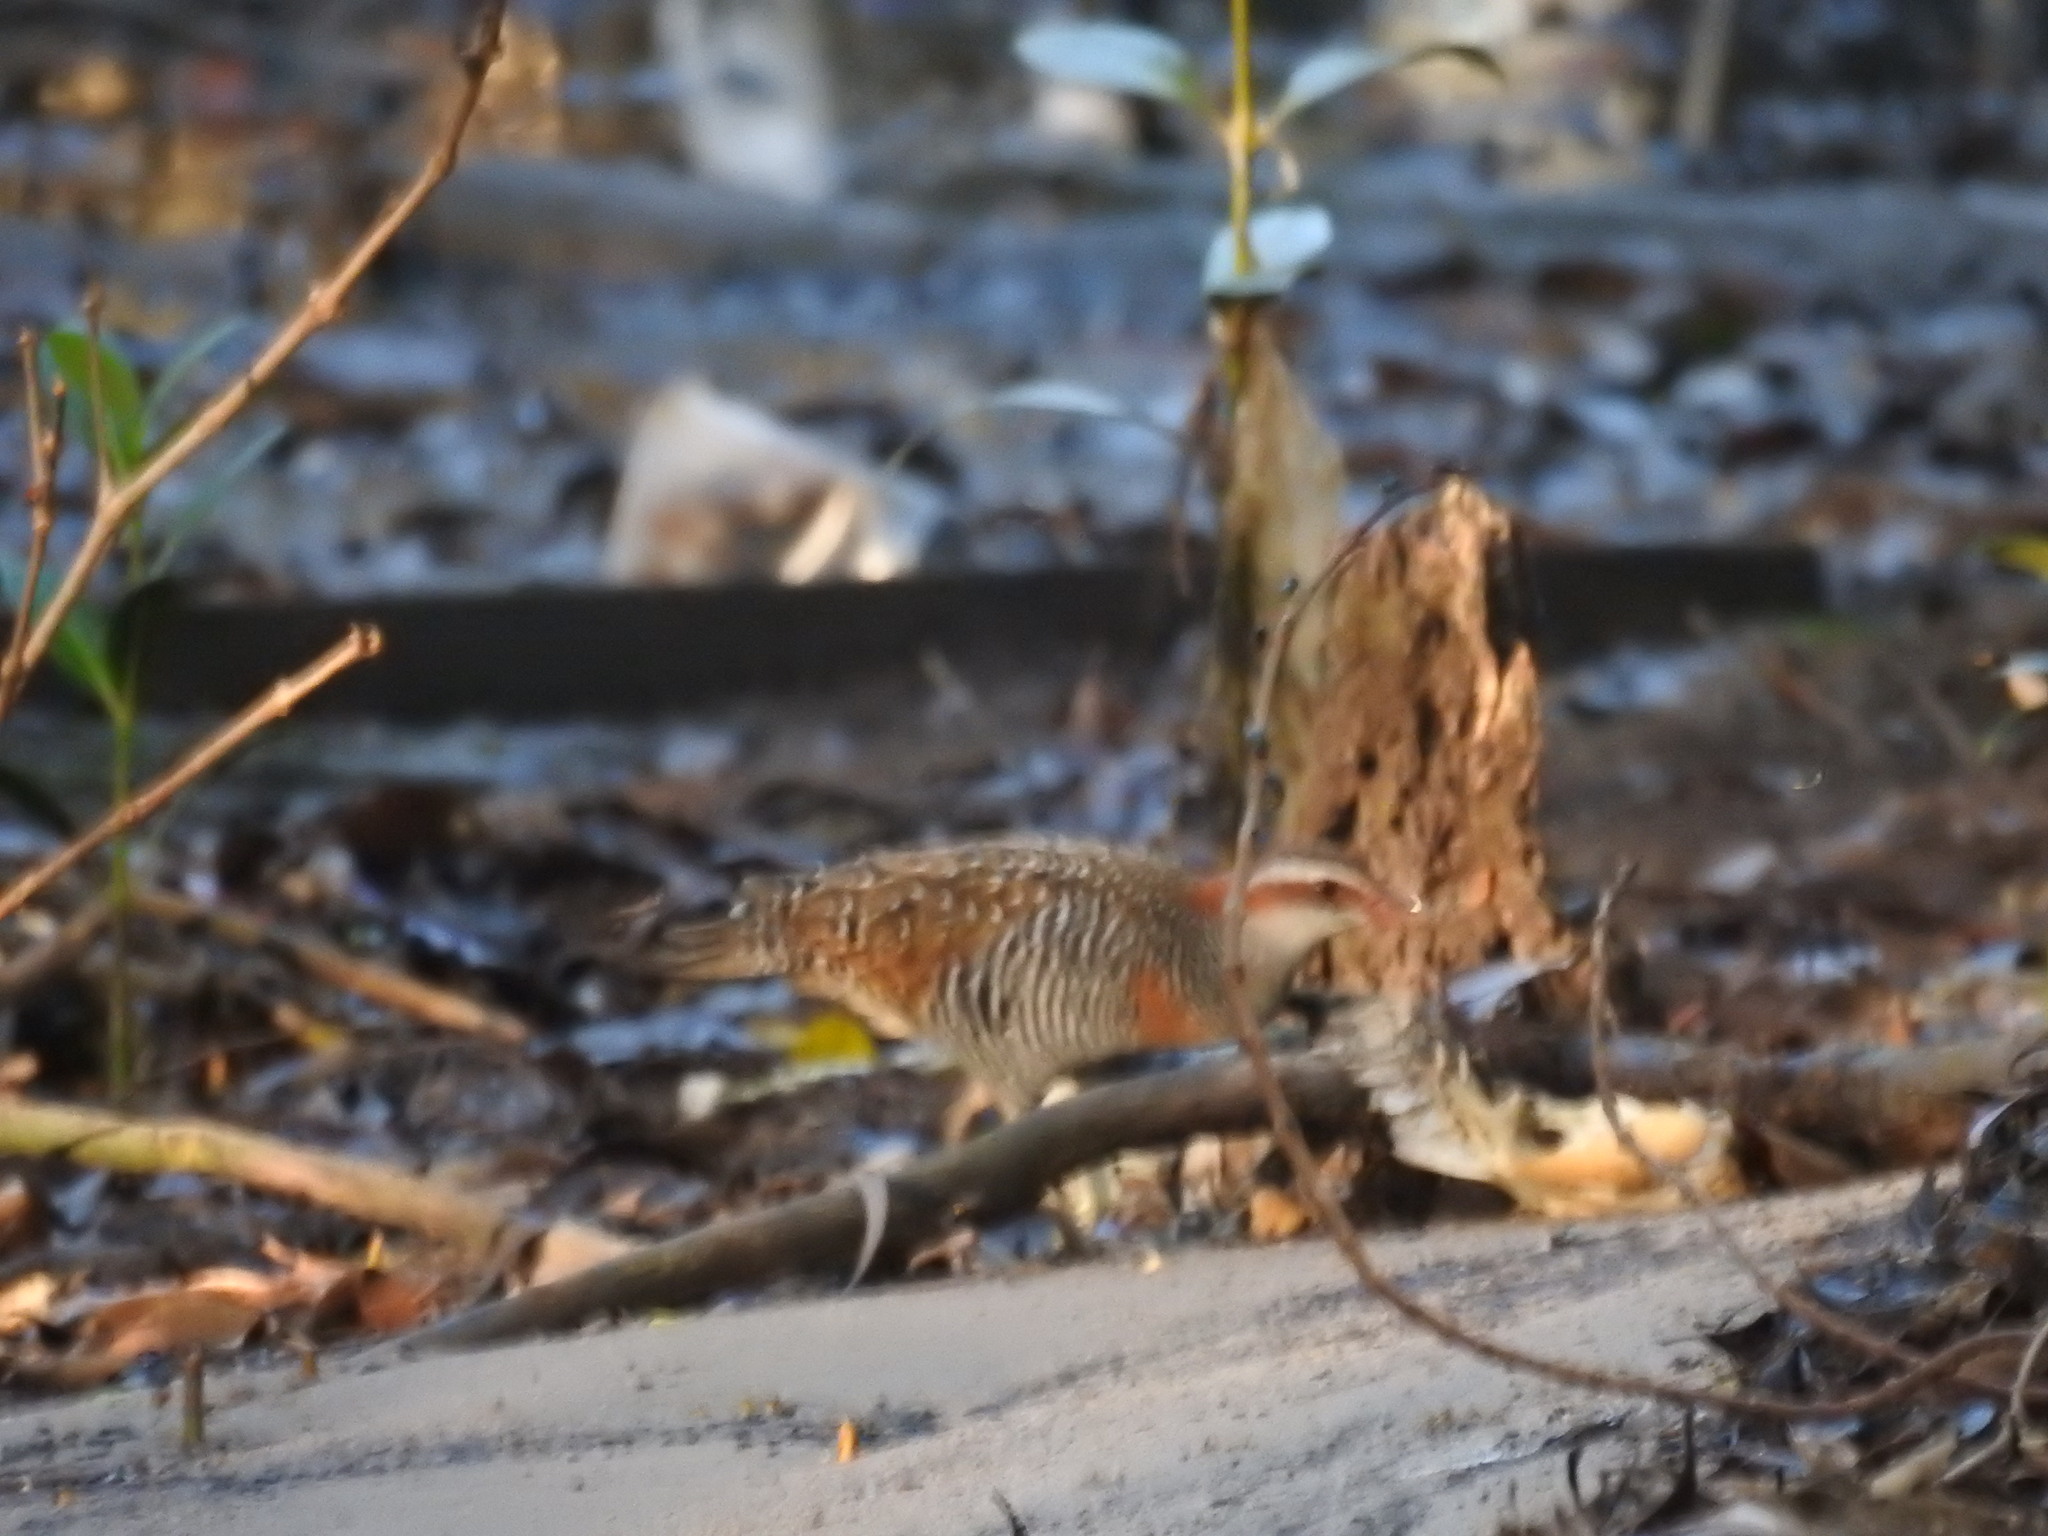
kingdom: Animalia
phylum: Chordata
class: Aves
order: Gruiformes
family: Rallidae
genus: Gallirallus
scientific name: Gallirallus philippensis
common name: Buff-banded rail
